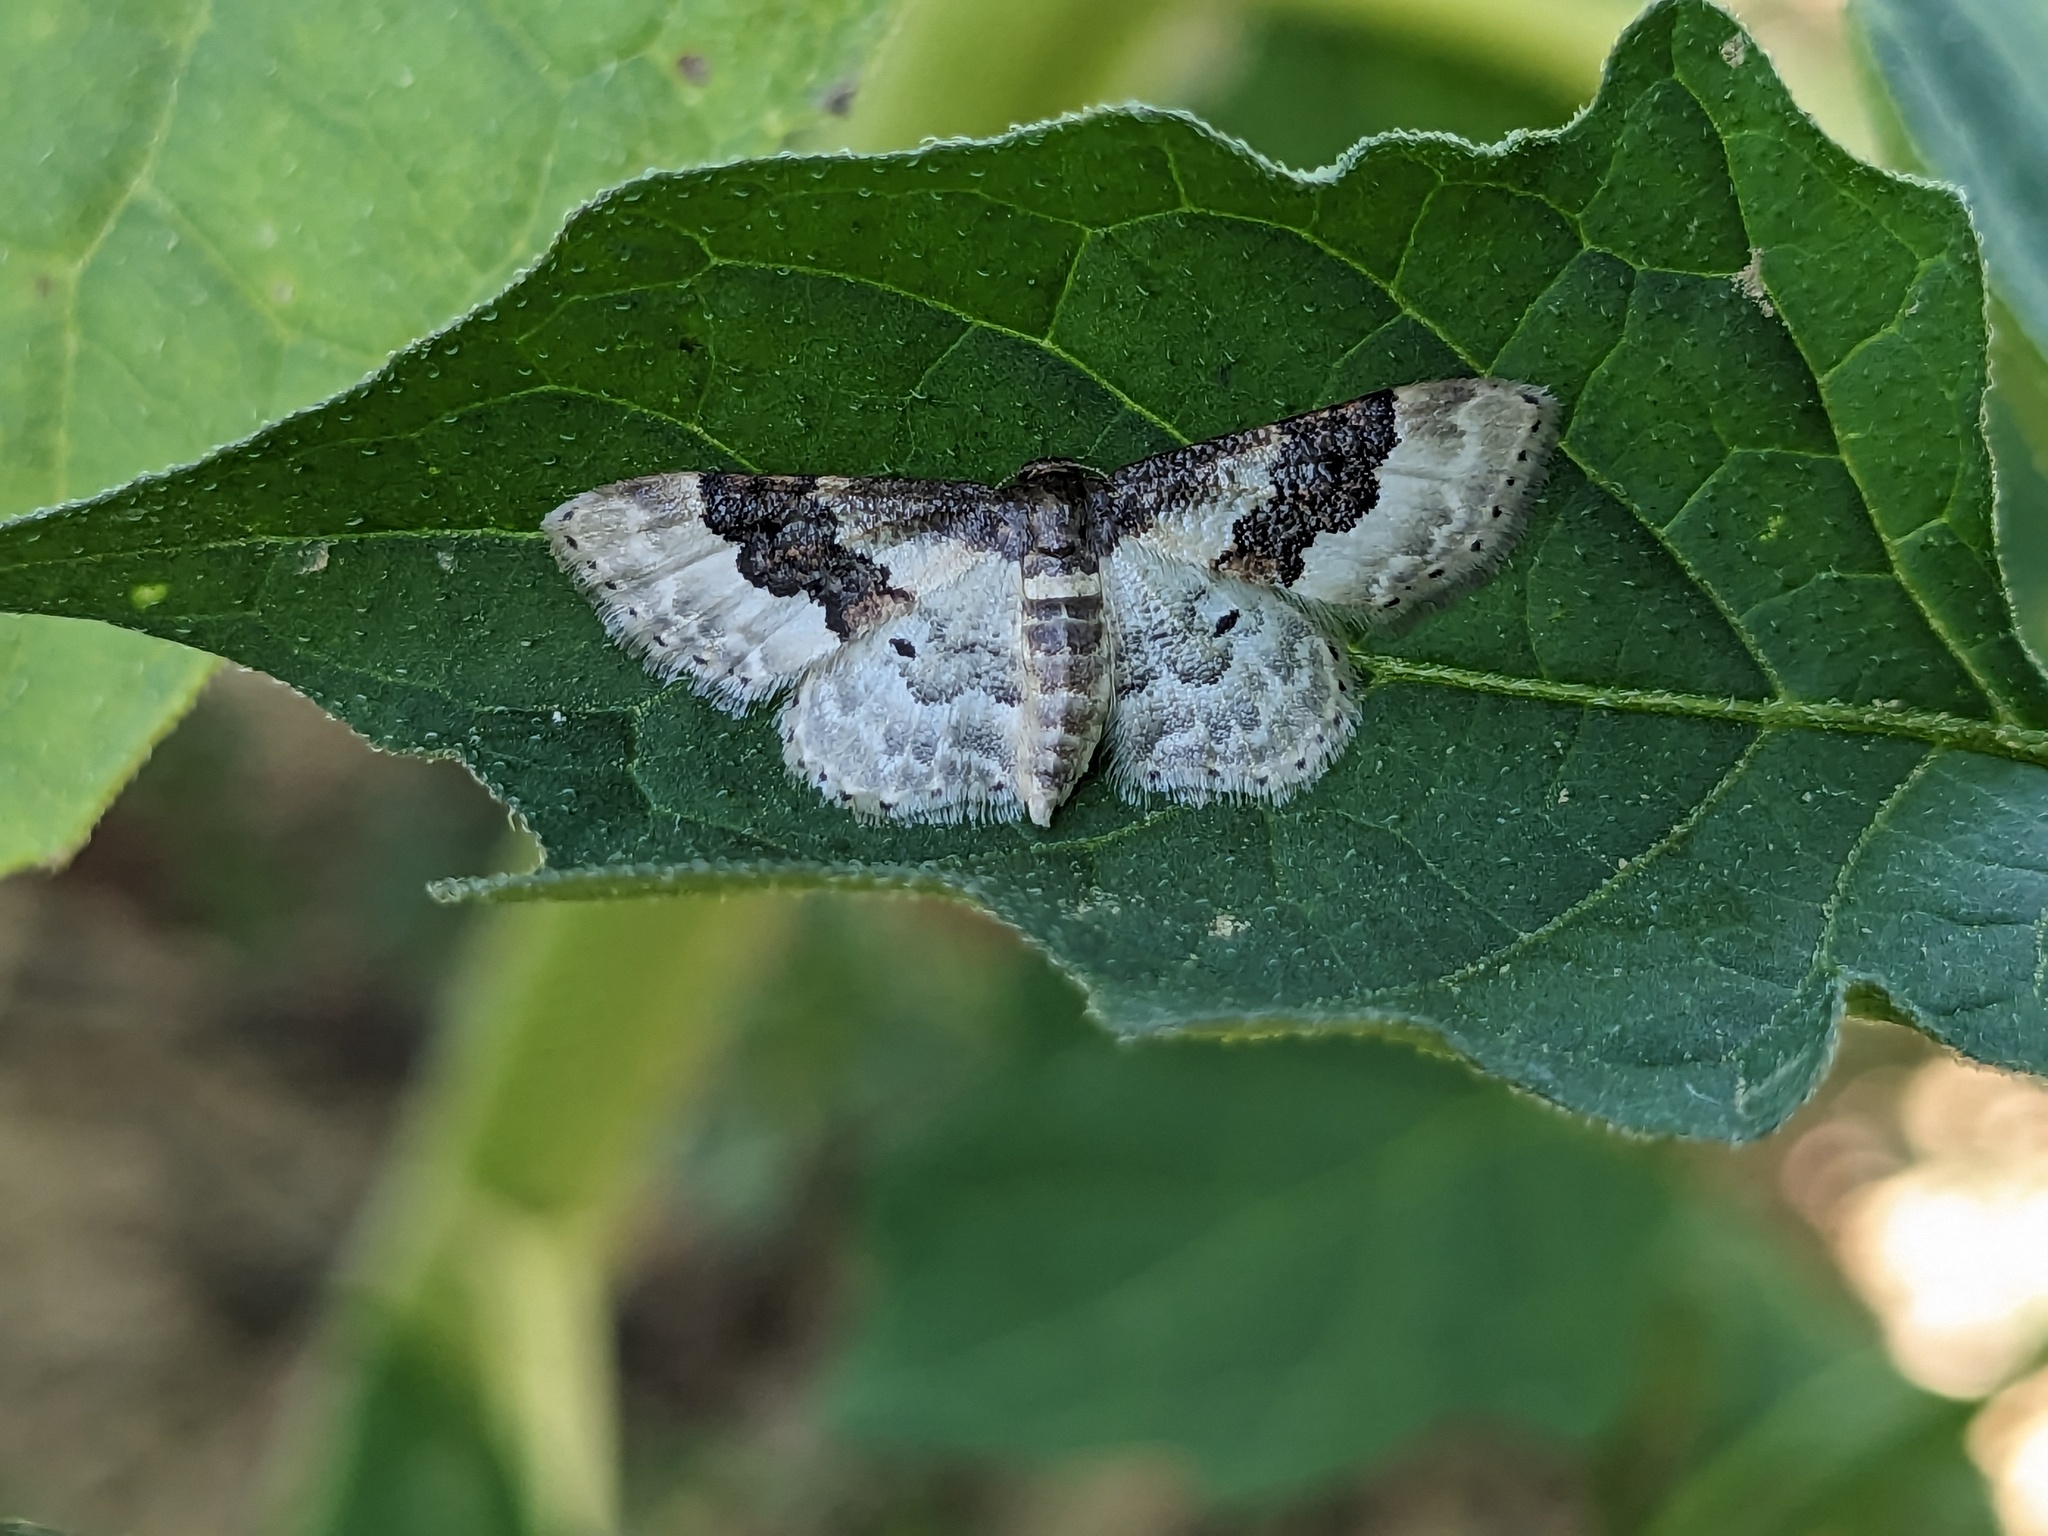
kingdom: Animalia
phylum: Arthropoda
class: Insecta
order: Lepidoptera
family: Geometridae
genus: Idaea
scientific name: Idaea rusticata
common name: Least carpet
